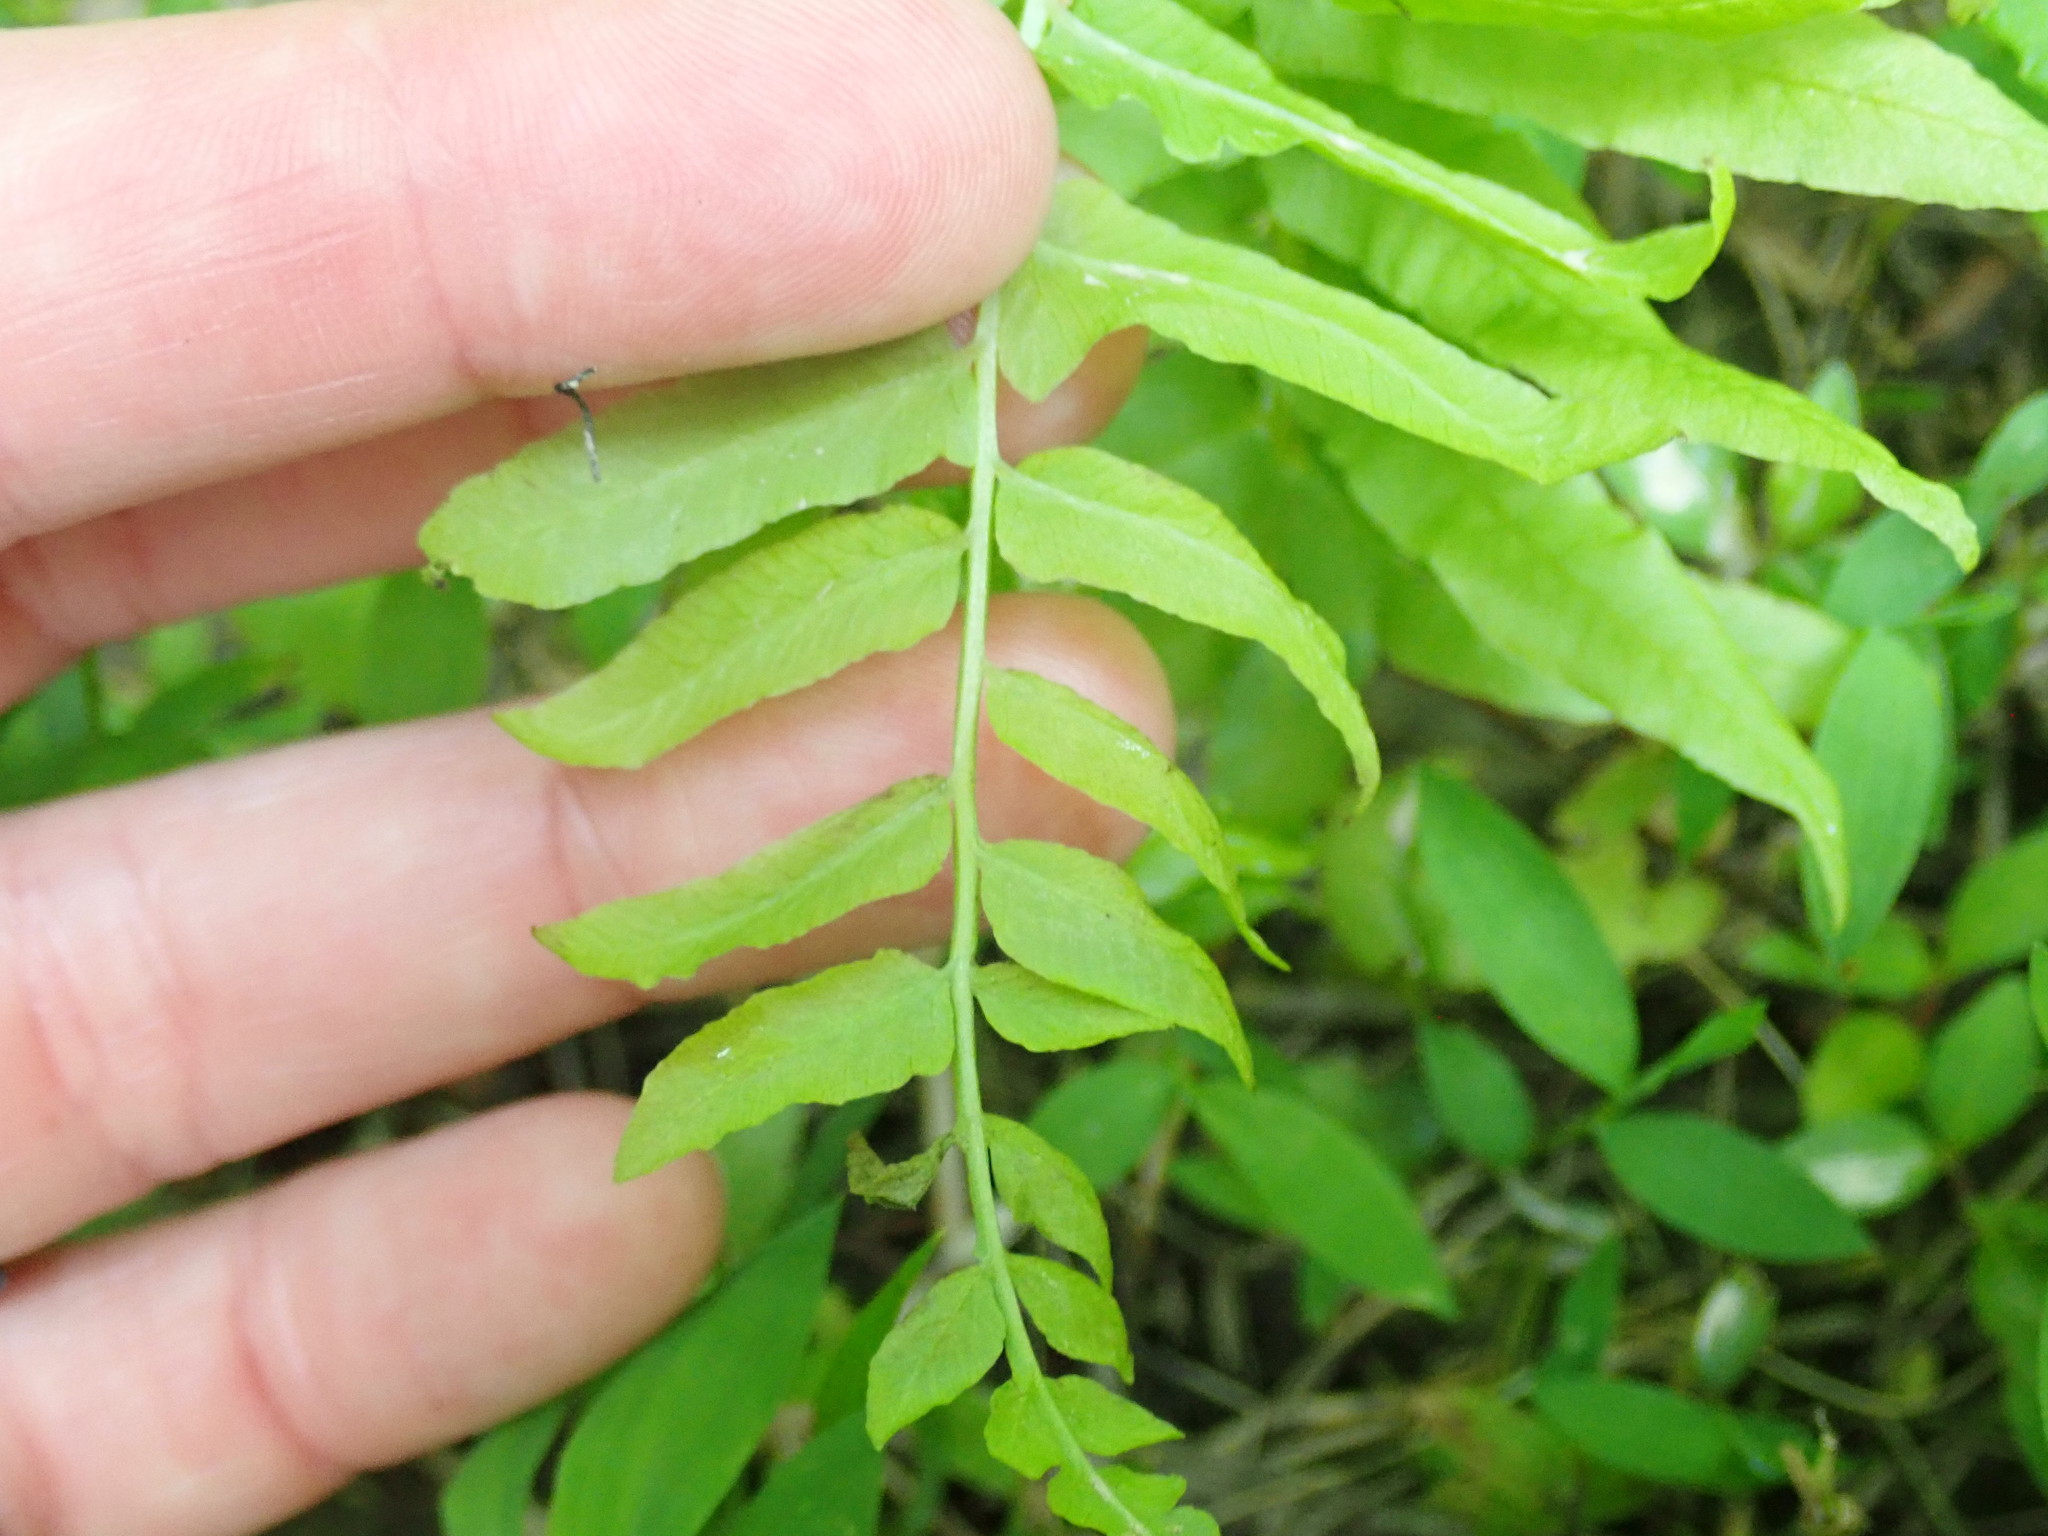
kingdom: Plantae
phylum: Tracheophyta
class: Polypodiopsida
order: Polypodiales
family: Diplaziopsidaceae
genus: Homalosorus
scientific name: Homalosorus pycnocarpos
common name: Glade fern
